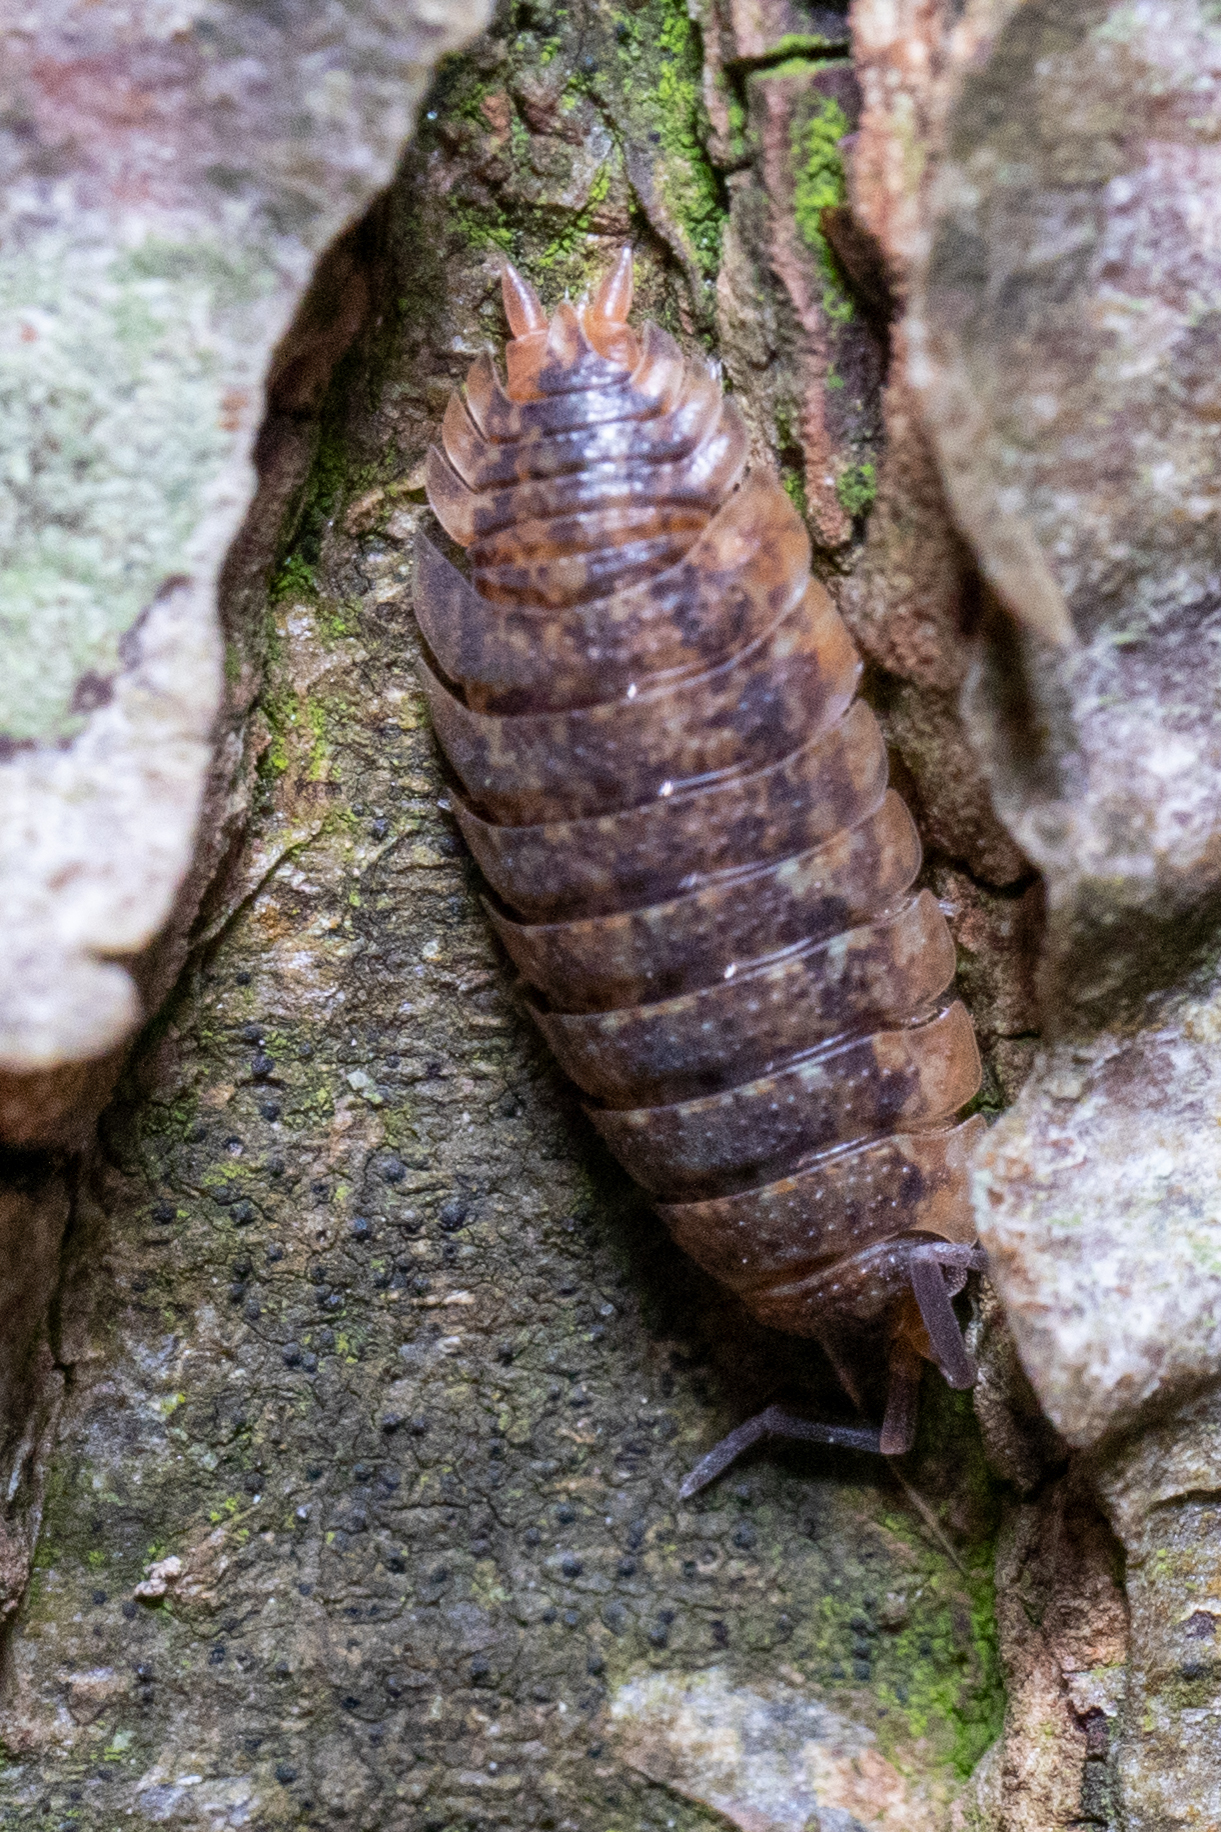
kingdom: Animalia
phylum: Arthropoda
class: Malacostraca
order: Isopoda
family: Porcellionidae
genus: Porcellio
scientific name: Porcellio scaber
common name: Common rough woodlouse
